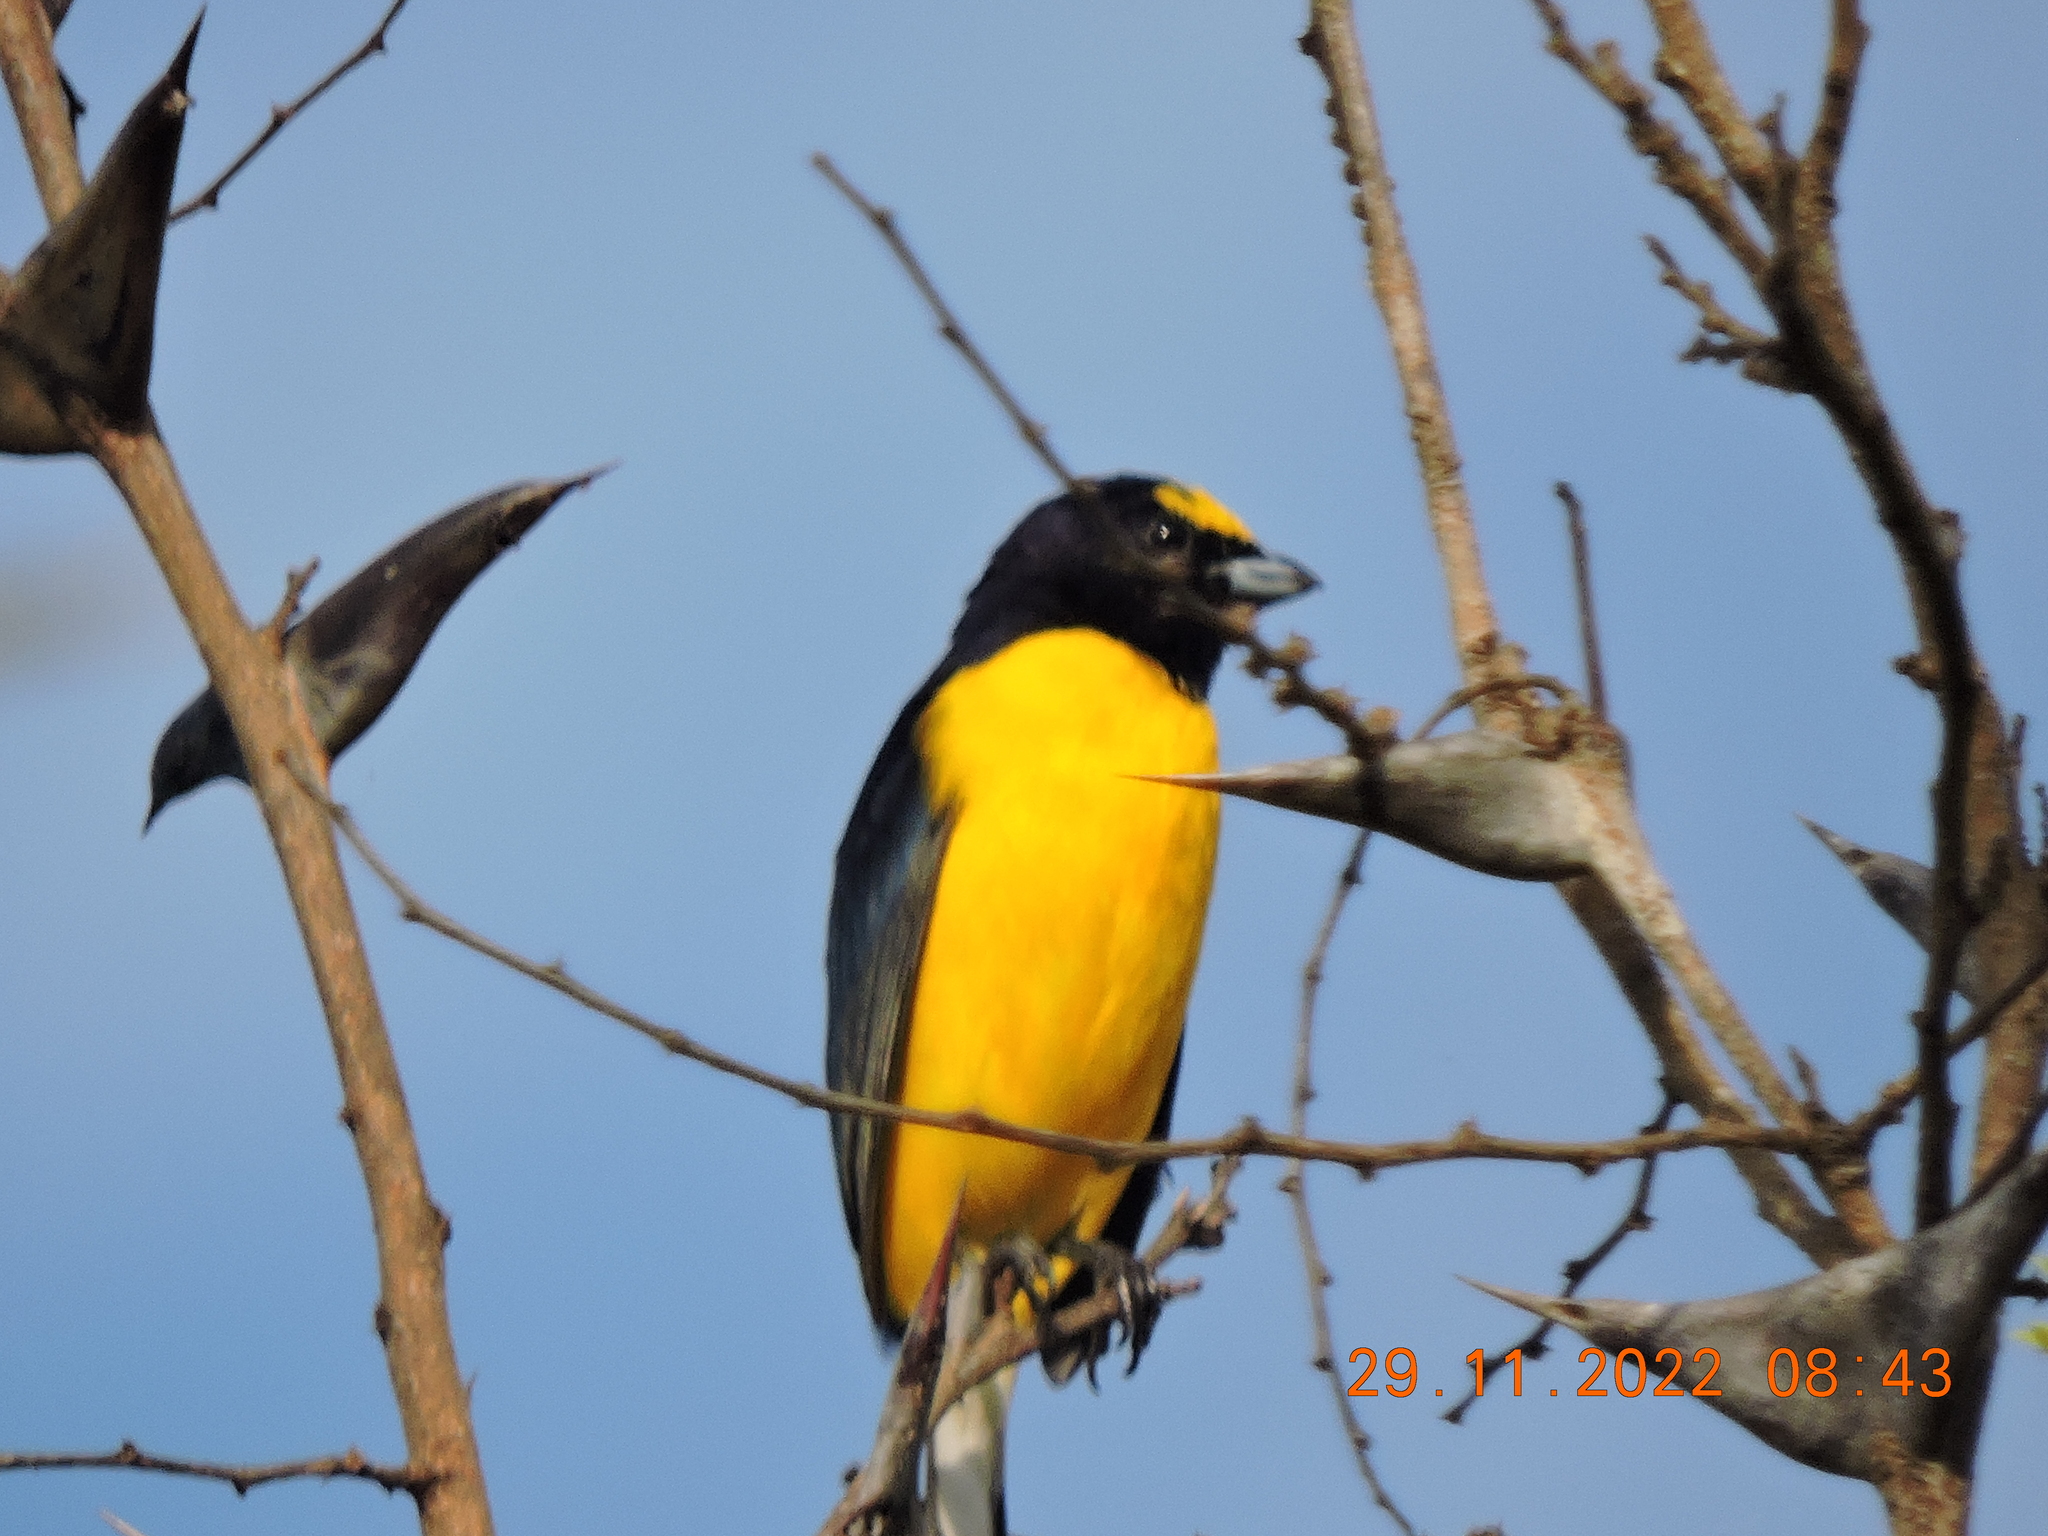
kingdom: Animalia
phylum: Chordata
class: Aves
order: Passeriformes
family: Fringillidae
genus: Euphonia
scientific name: Euphonia godmani
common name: West mexican euphonia
